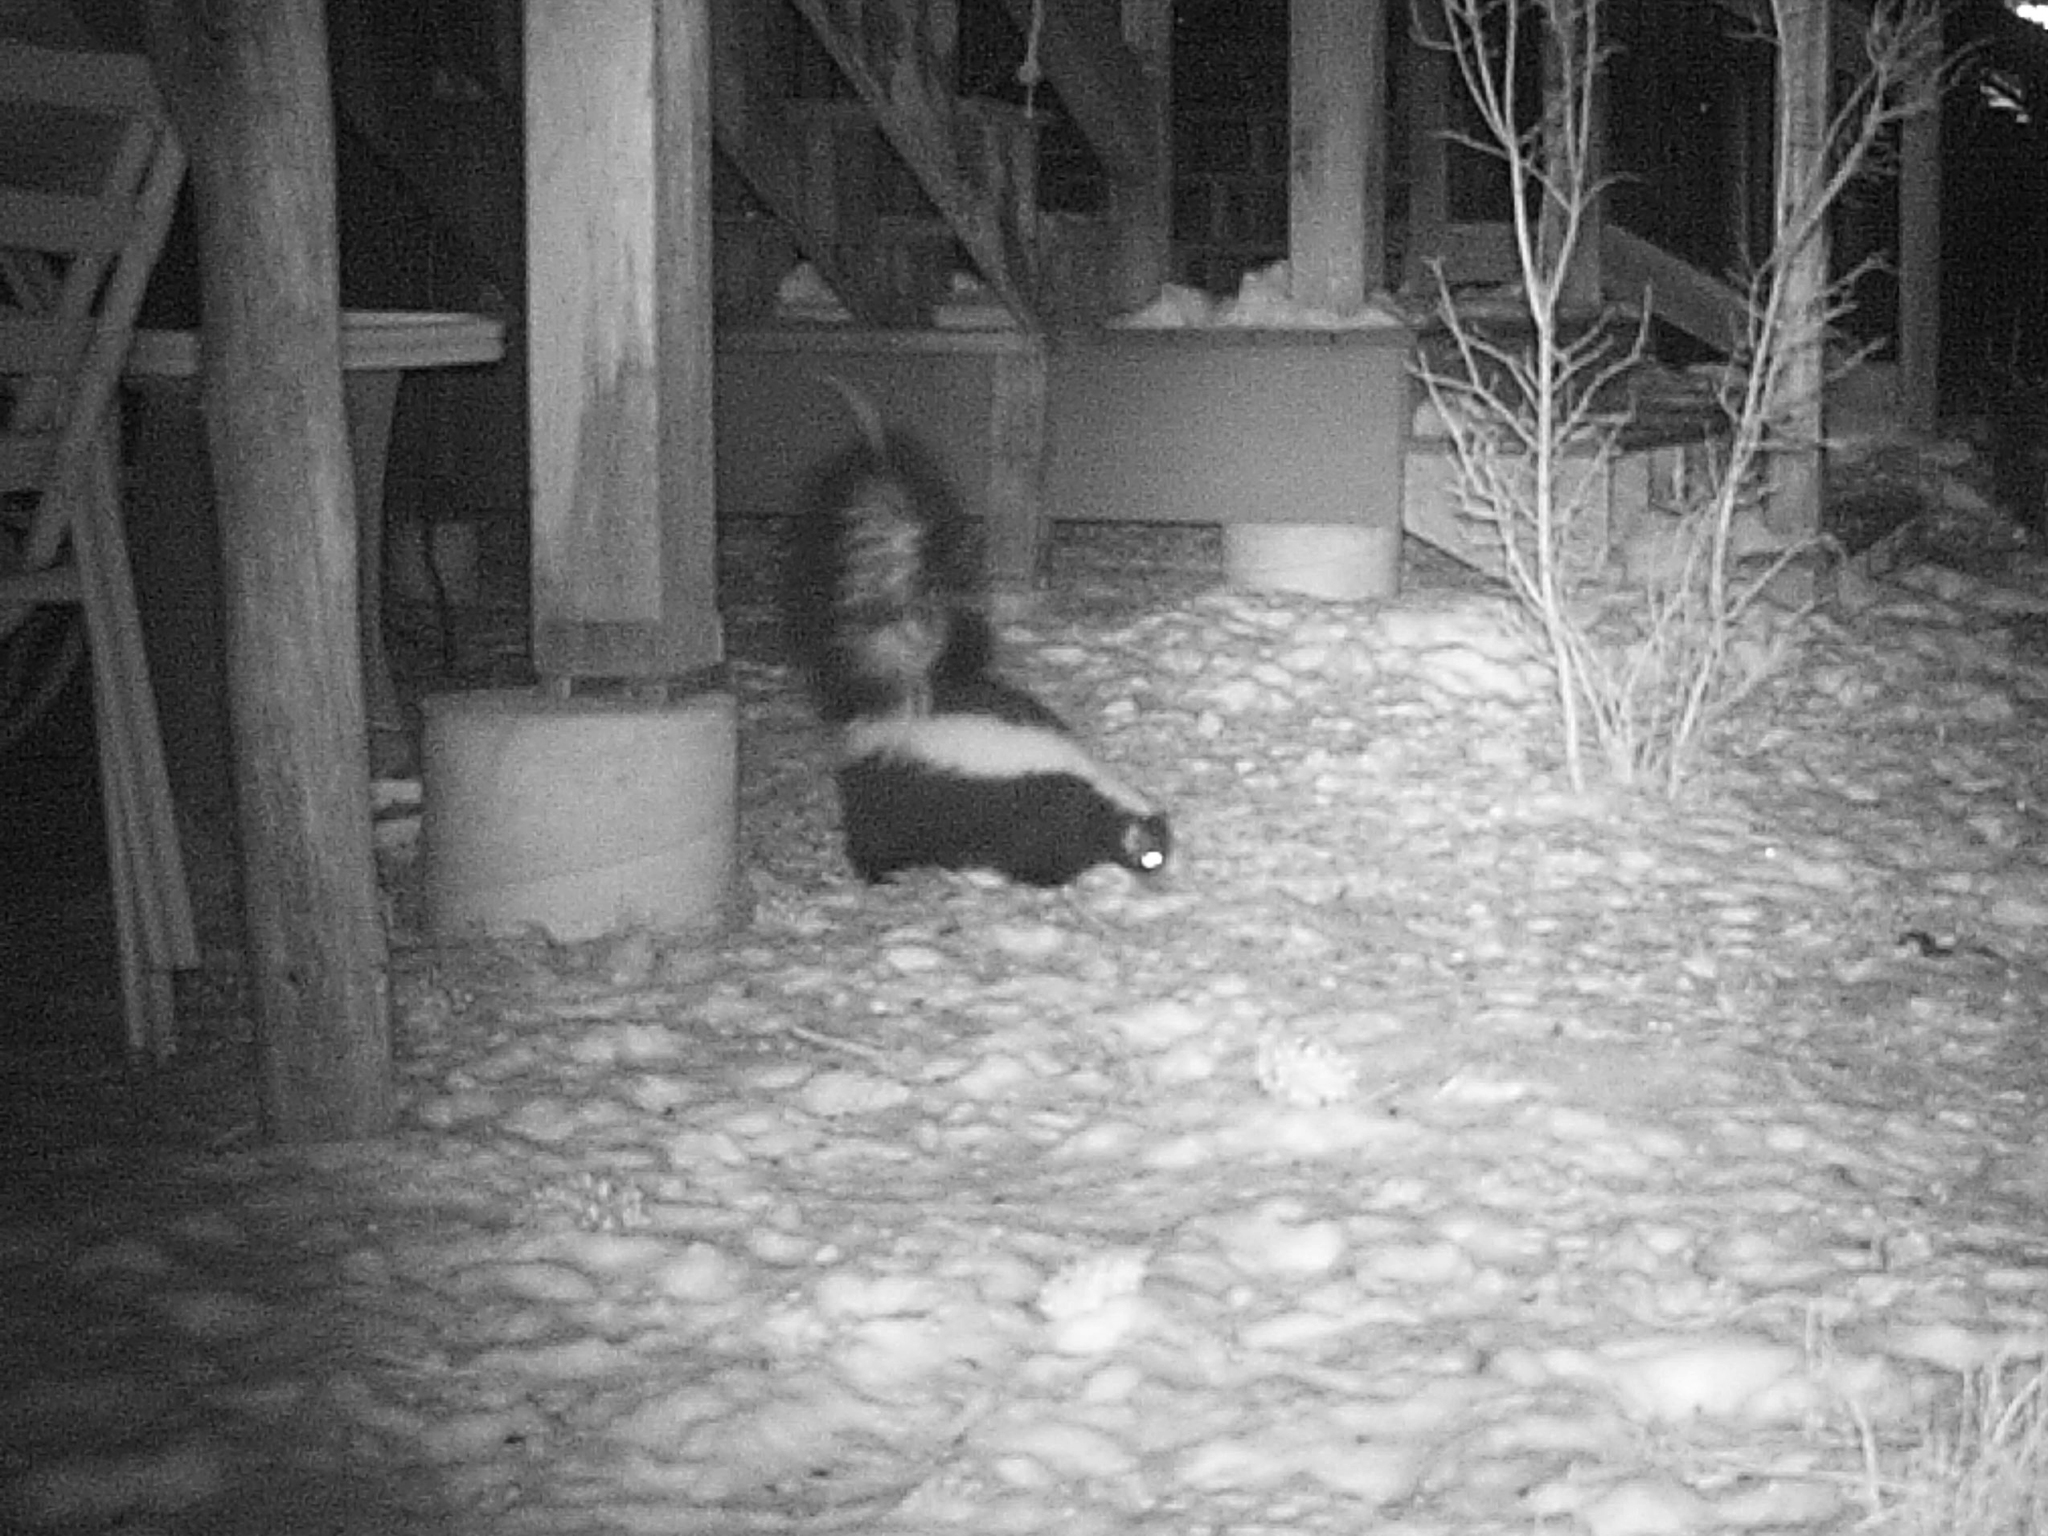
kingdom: Animalia
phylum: Chordata
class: Mammalia
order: Carnivora
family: Mephitidae
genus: Mephitis
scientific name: Mephitis mephitis
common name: Striped skunk
